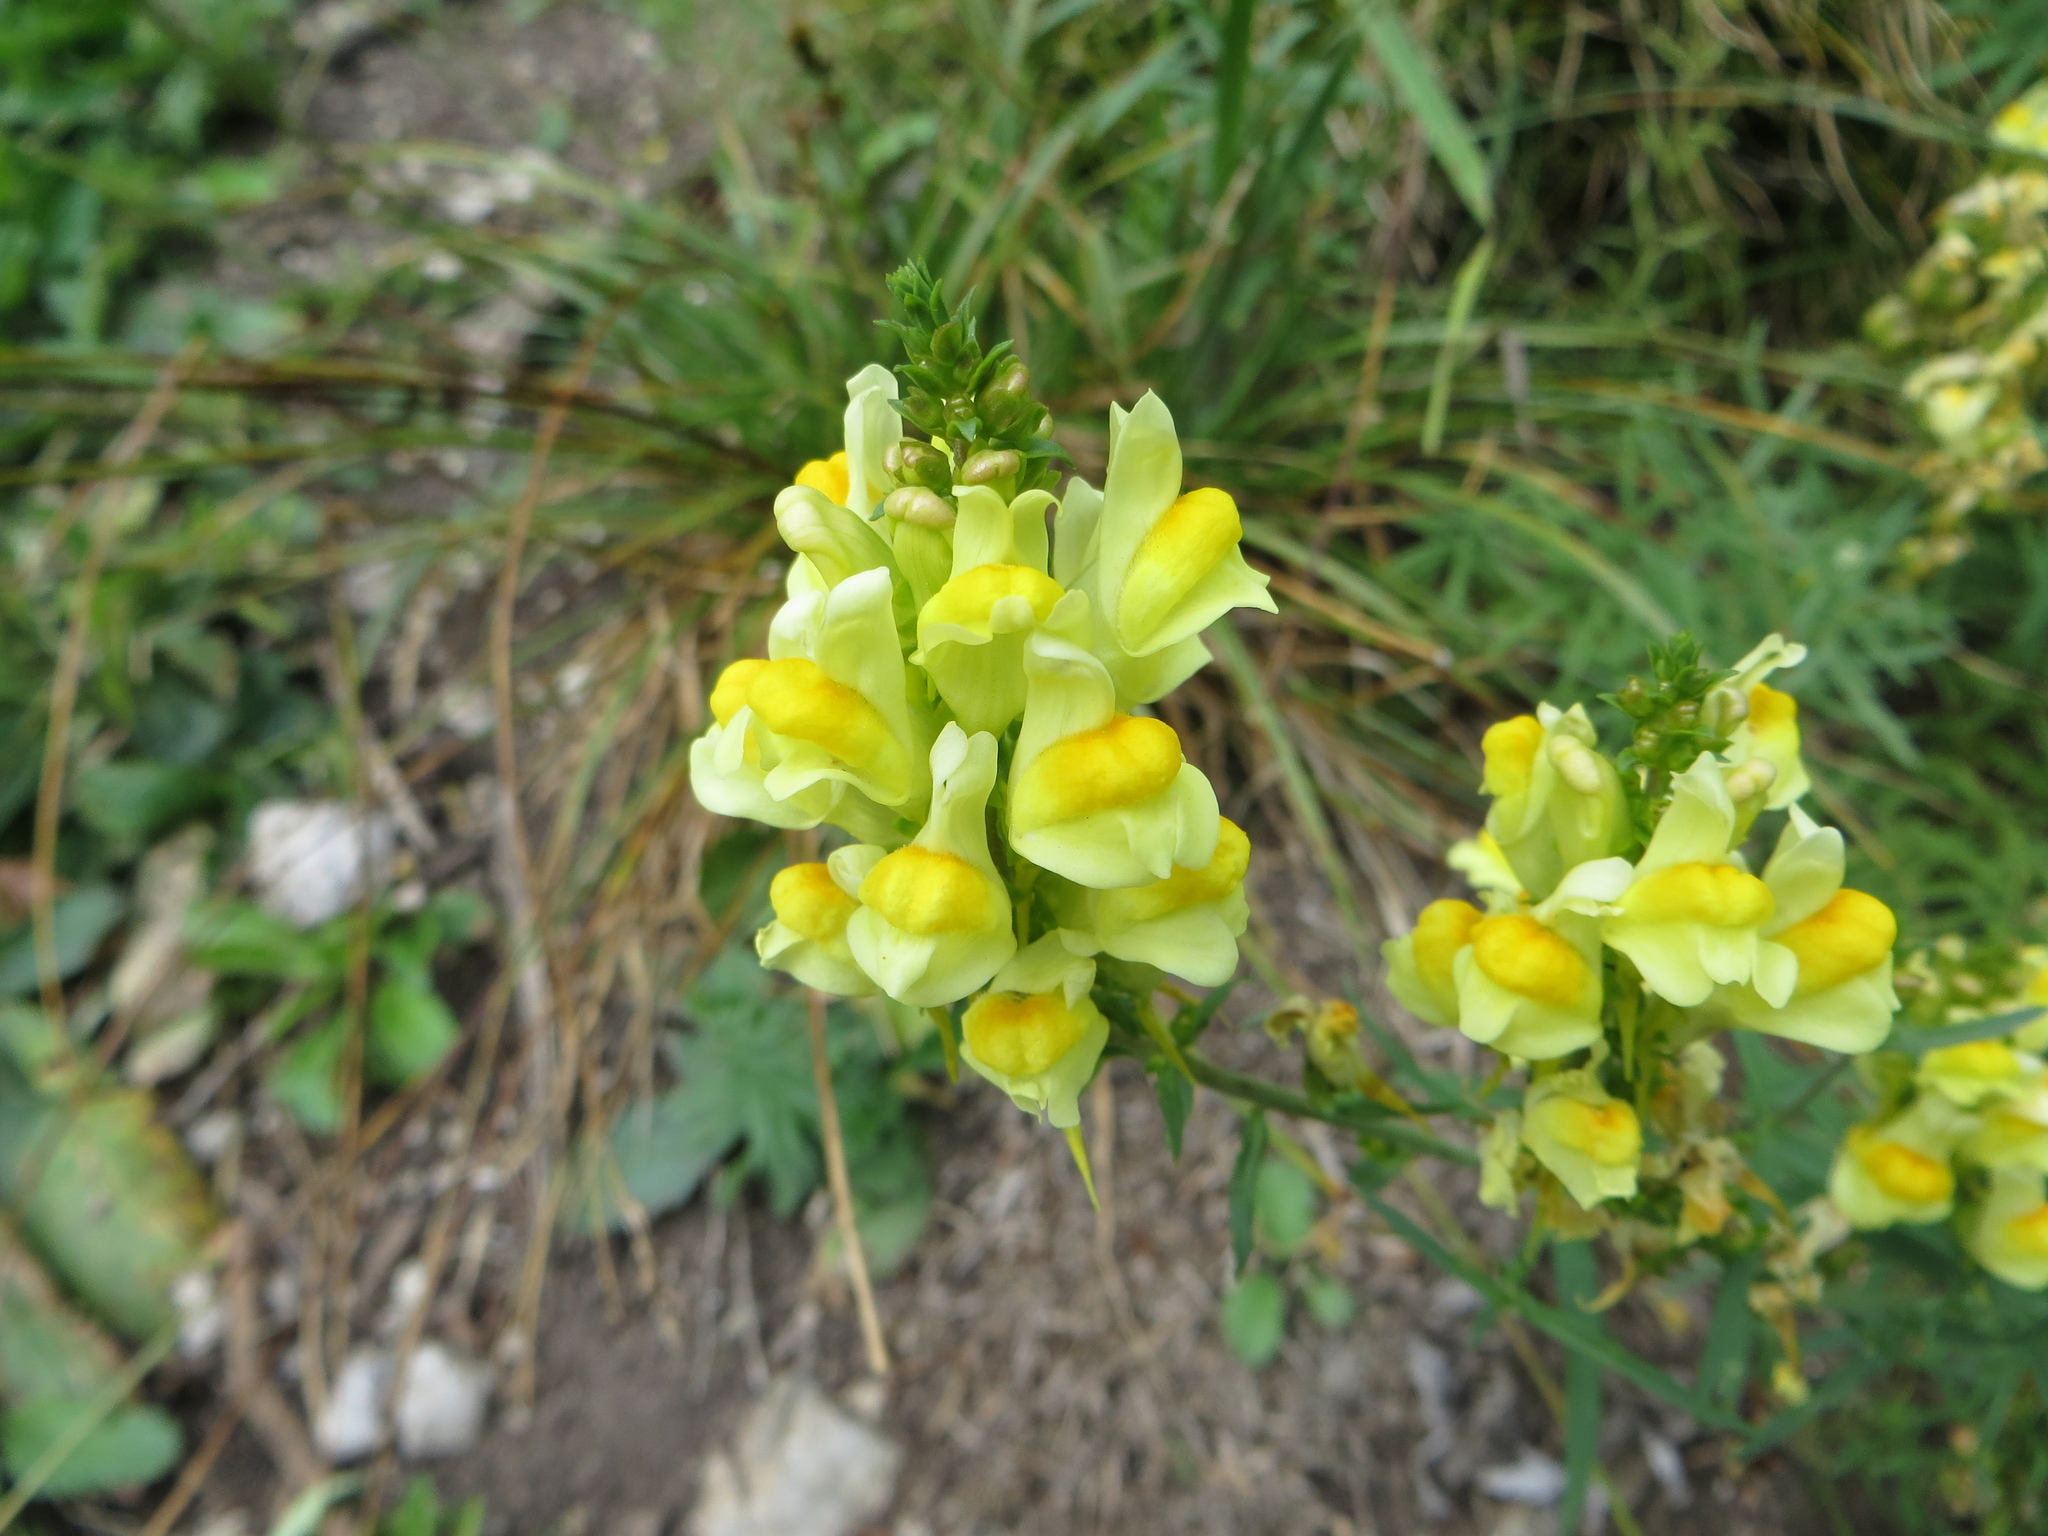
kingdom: Plantae
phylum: Tracheophyta
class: Magnoliopsida
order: Lamiales
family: Plantaginaceae
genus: Linaria
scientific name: Linaria vulgaris
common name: Butter and eggs
